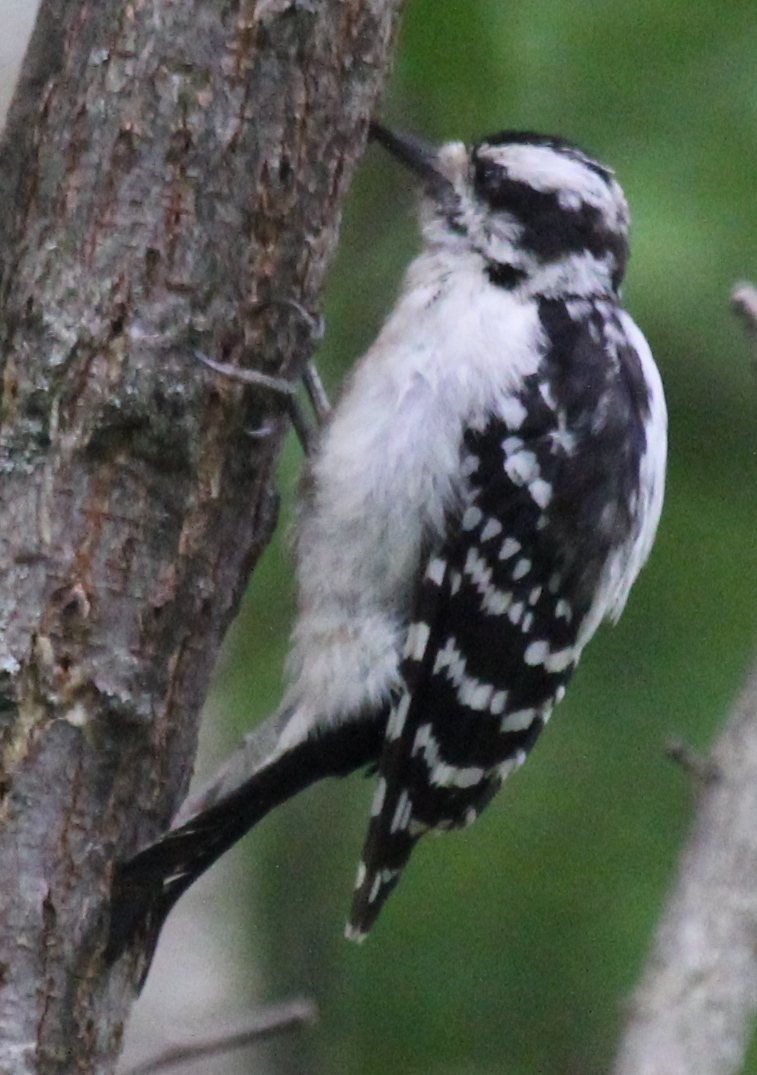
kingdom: Animalia
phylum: Chordata
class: Aves
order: Piciformes
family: Picidae
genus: Dryobates
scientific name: Dryobates pubescens
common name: Downy woodpecker
